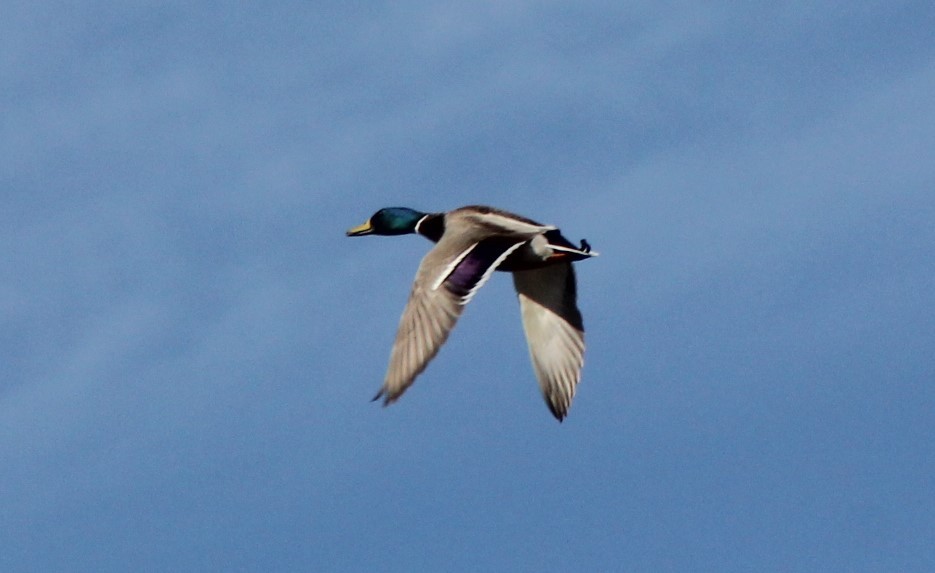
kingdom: Animalia
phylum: Chordata
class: Aves
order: Anseriformes
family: Anatidae
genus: Anas
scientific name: Anas platyrhynchos
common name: Mallard
